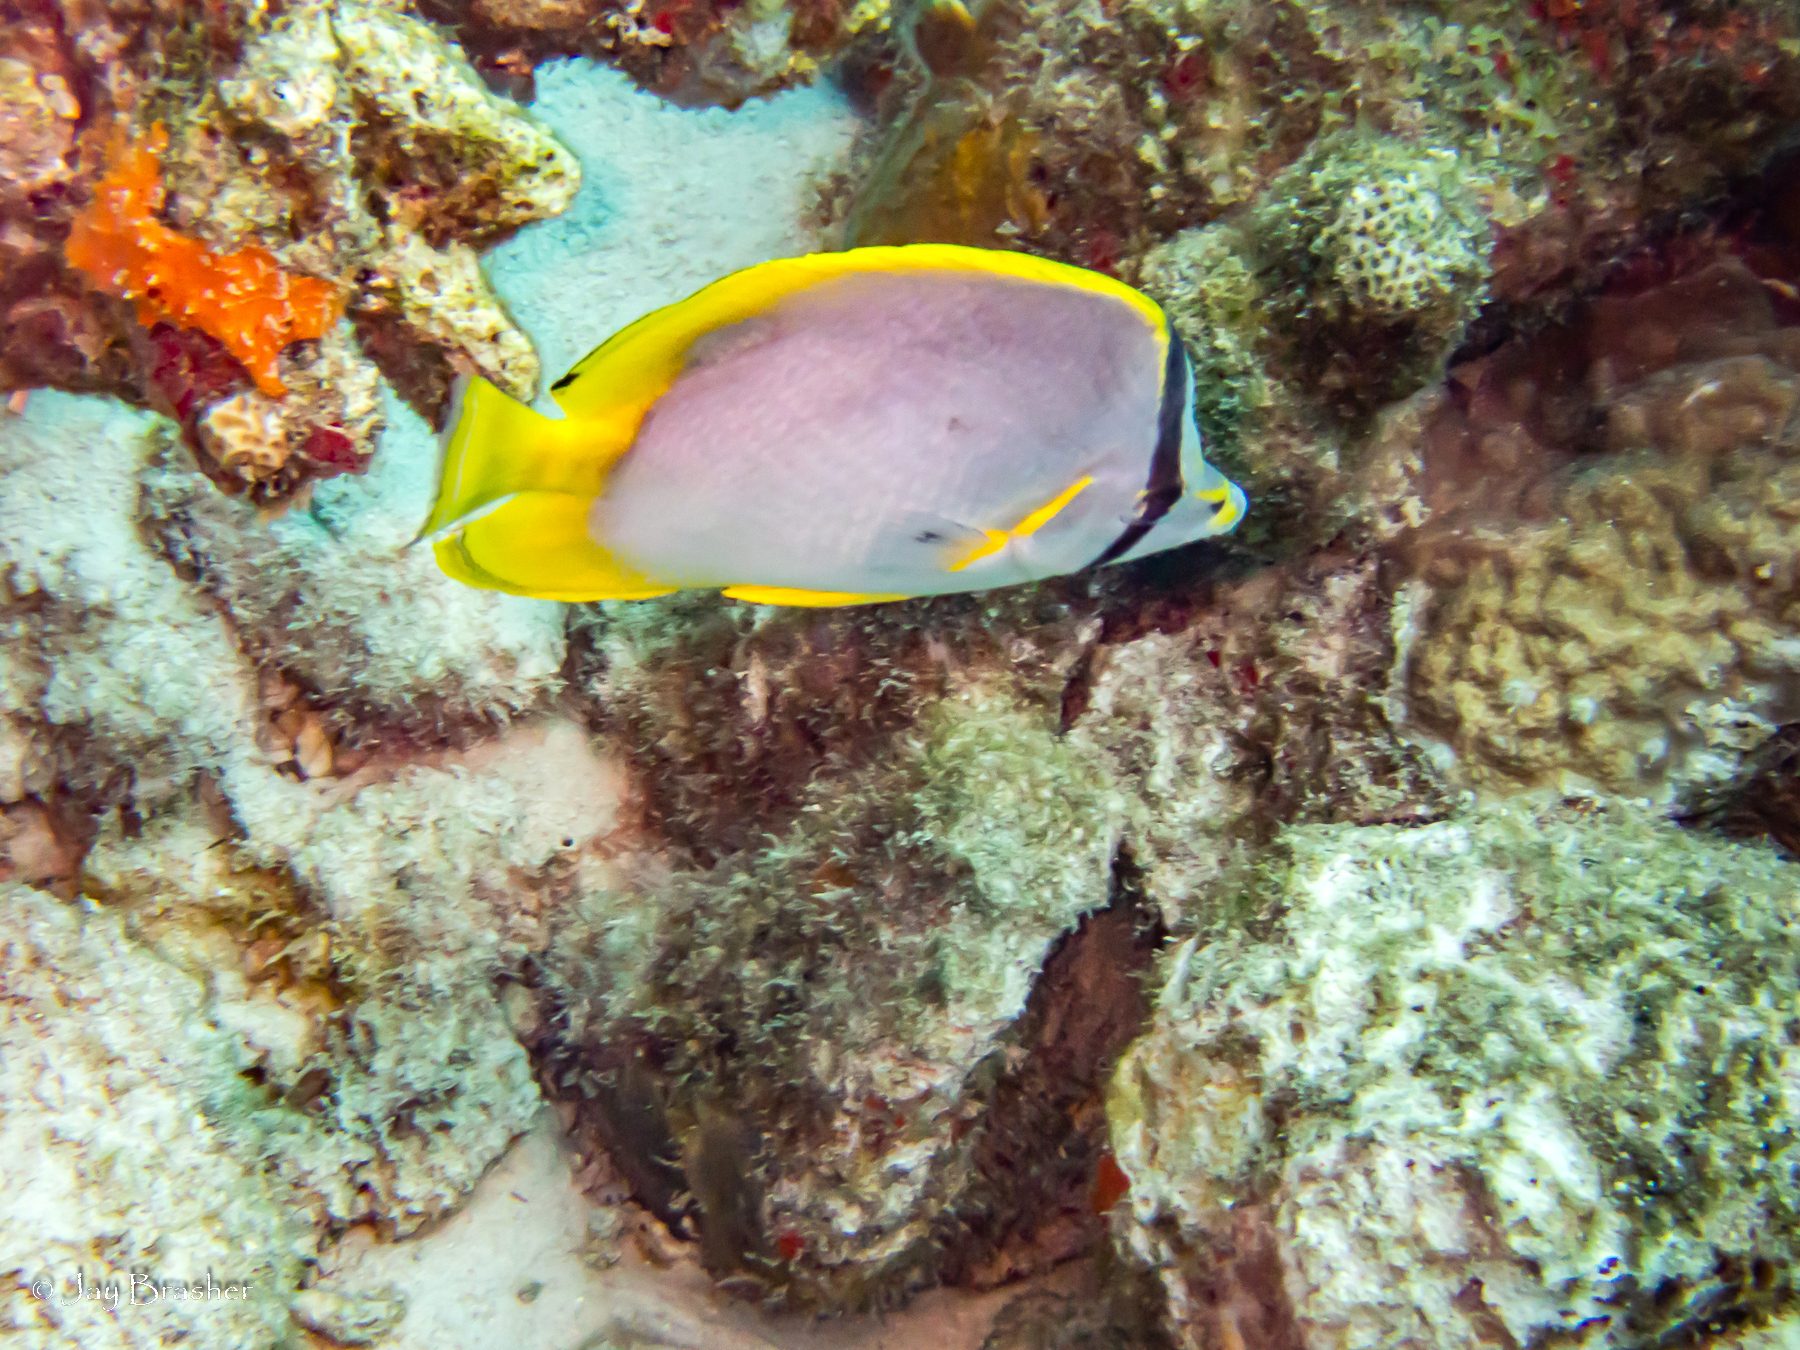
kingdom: Animalia
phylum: Chordata
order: Perciformes
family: Chaetodontidae
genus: Chaetodon
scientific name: Chaetodon ocellatus
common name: Spotfin butterflyfish
